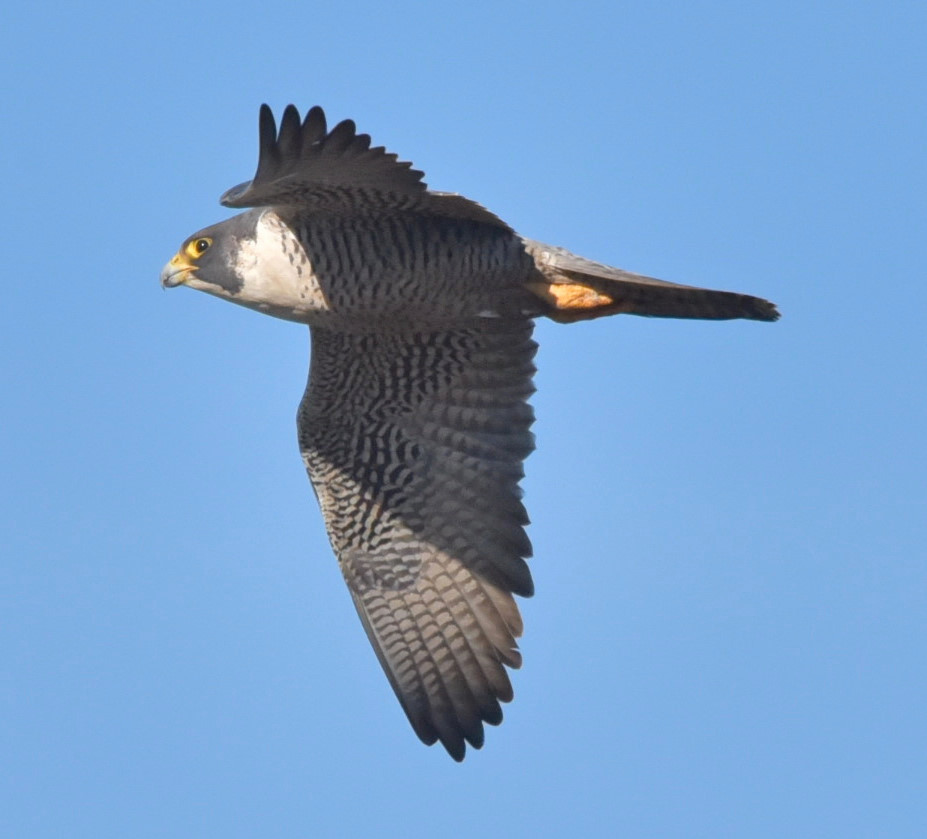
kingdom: Animalia
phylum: Chordata
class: Aves
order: Falconiformes
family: Falconidae
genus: Falco
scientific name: Falco peregrinus
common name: Peregrine falcon
